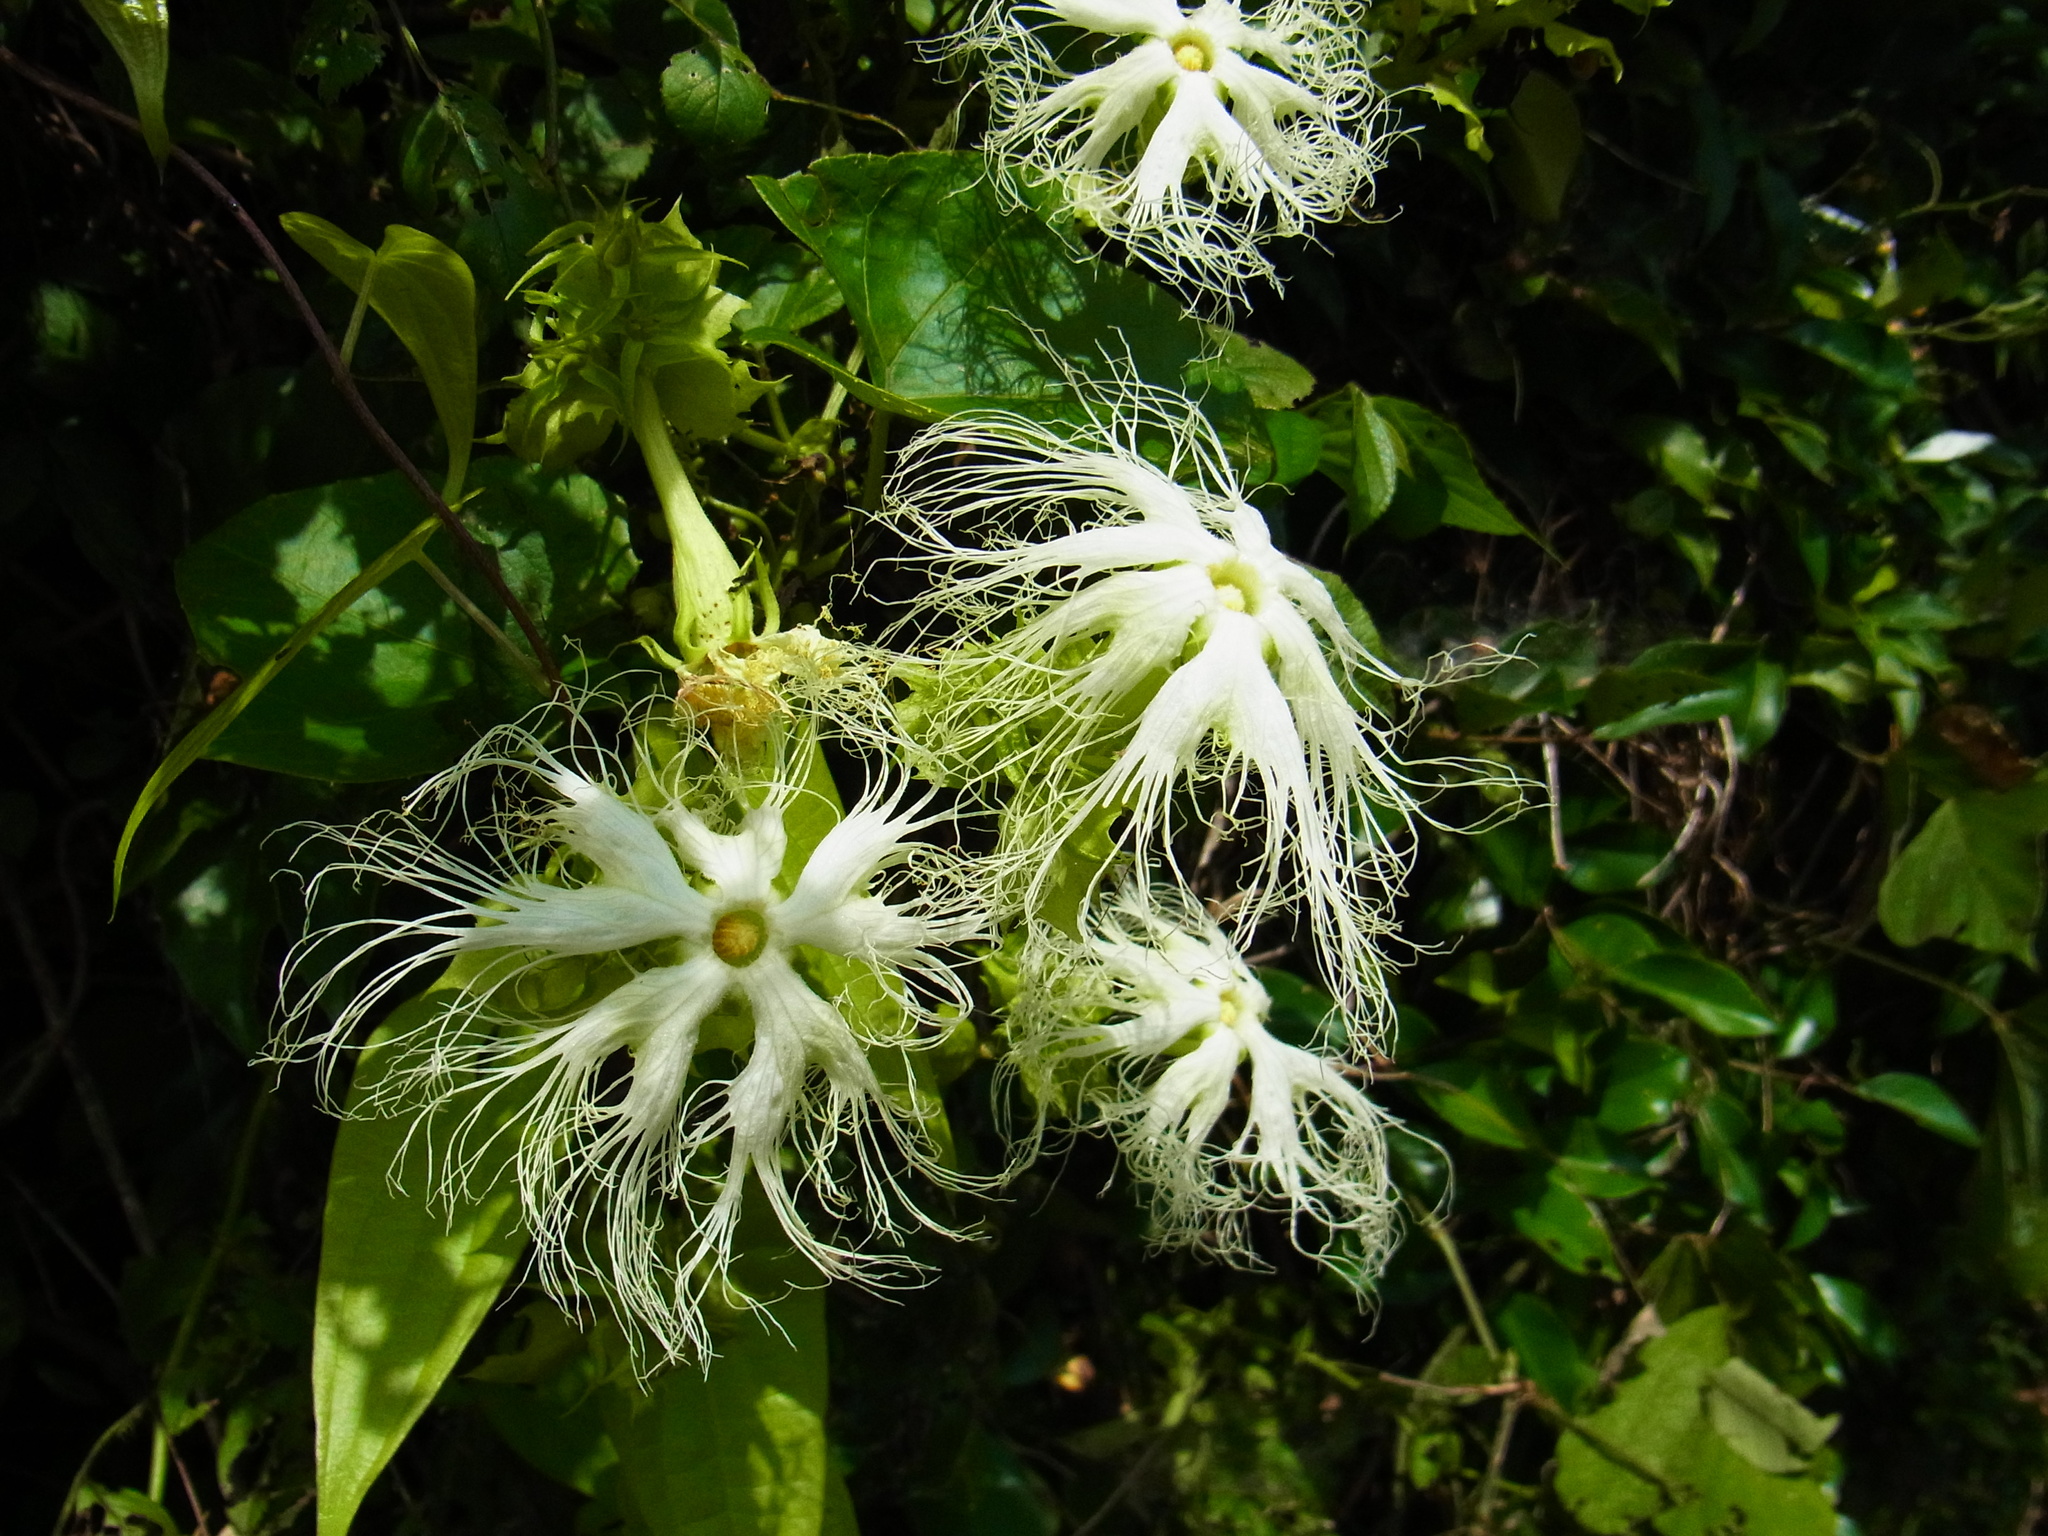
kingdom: Plantae
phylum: Tracheophyta
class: Magnoliopsida
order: Cucurbitales
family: Cucurbitaceae
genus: Trichosanthes
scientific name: Trichosanthes kirilowii
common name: Chinese-cucumber
